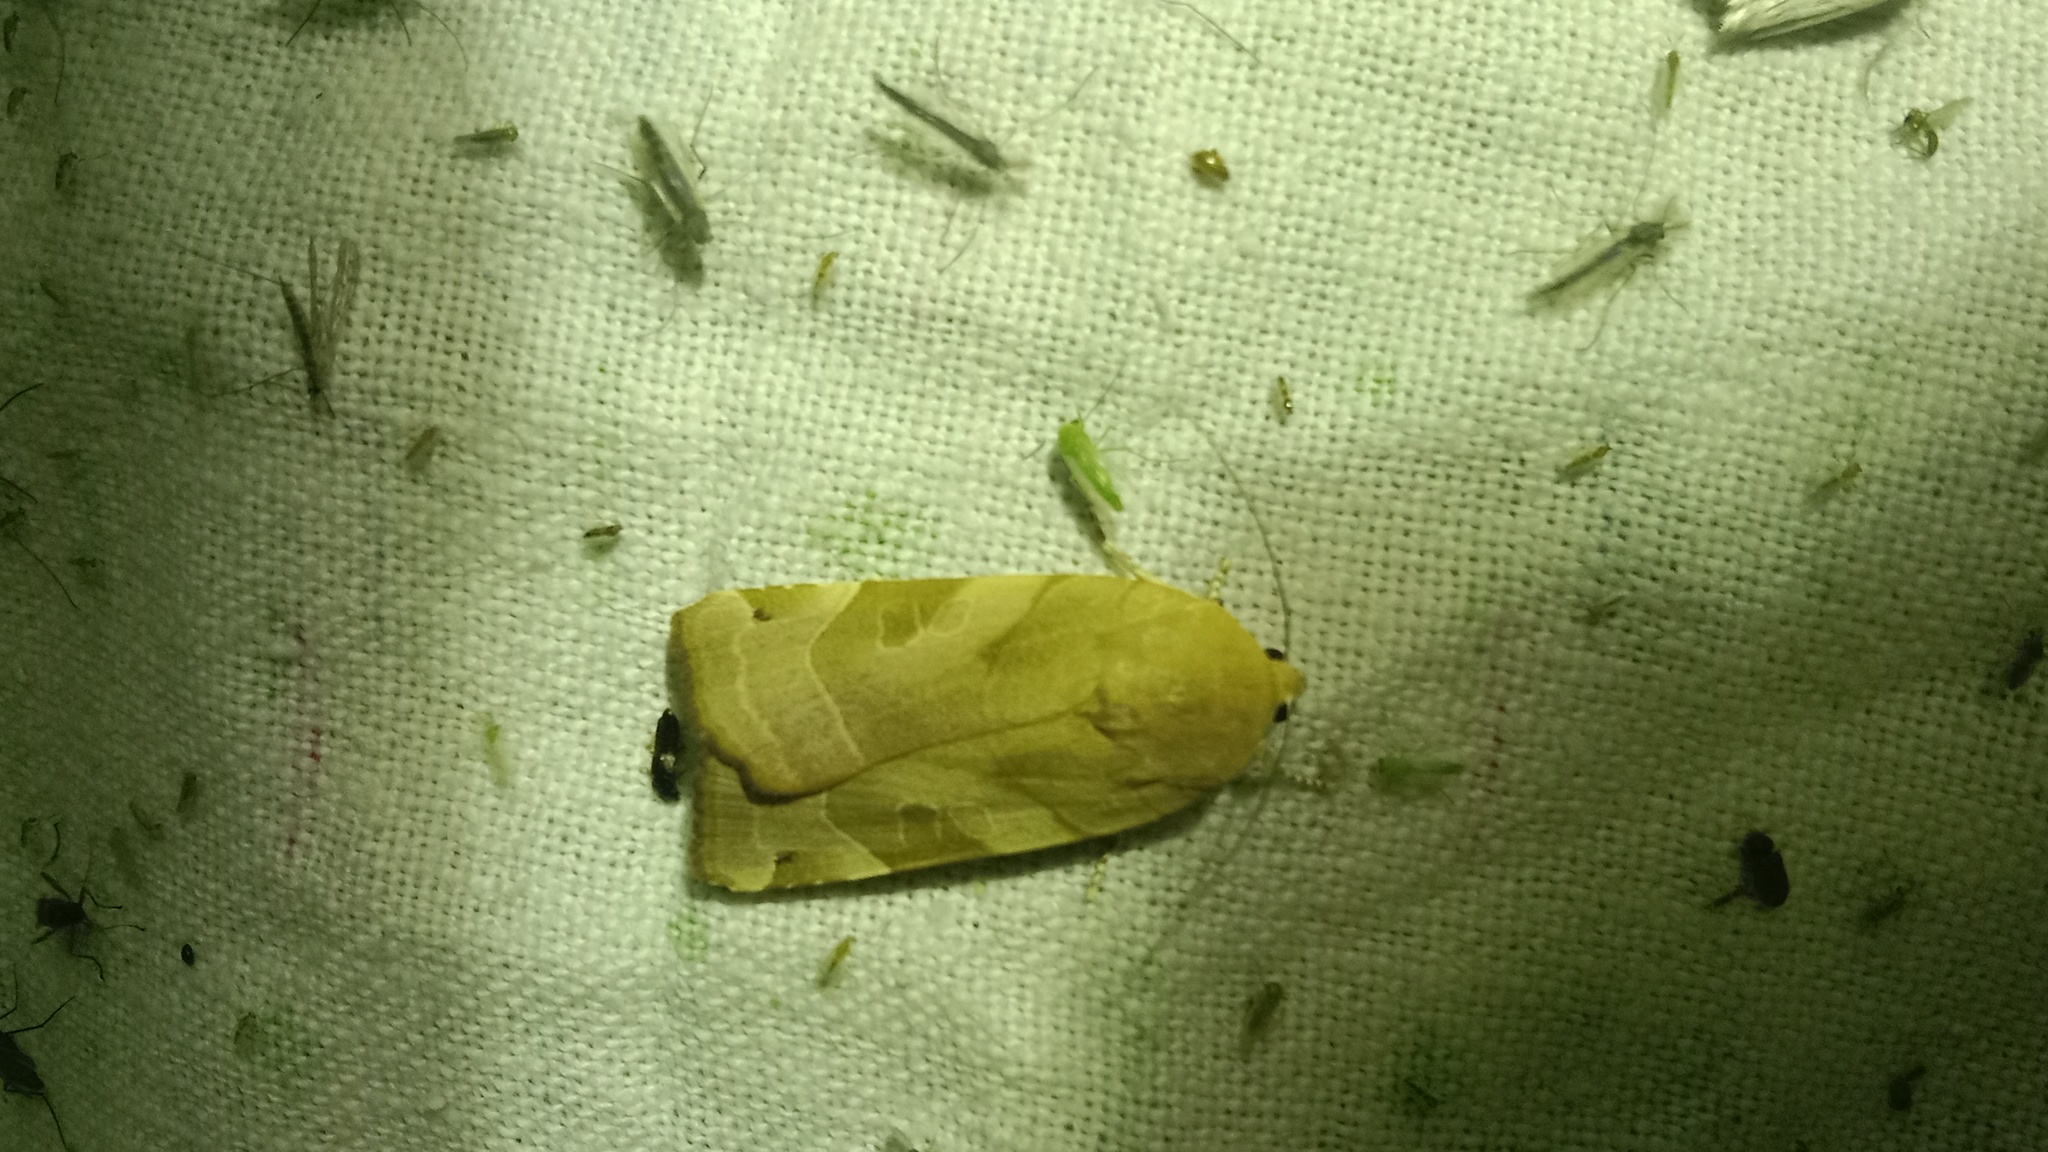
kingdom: Animalia
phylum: Arthropoda
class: Insecta
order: Lepidoptera
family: Noctuidae
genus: Noctua
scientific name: Noctua fimbriata
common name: Broad-bordered yellow underwing
